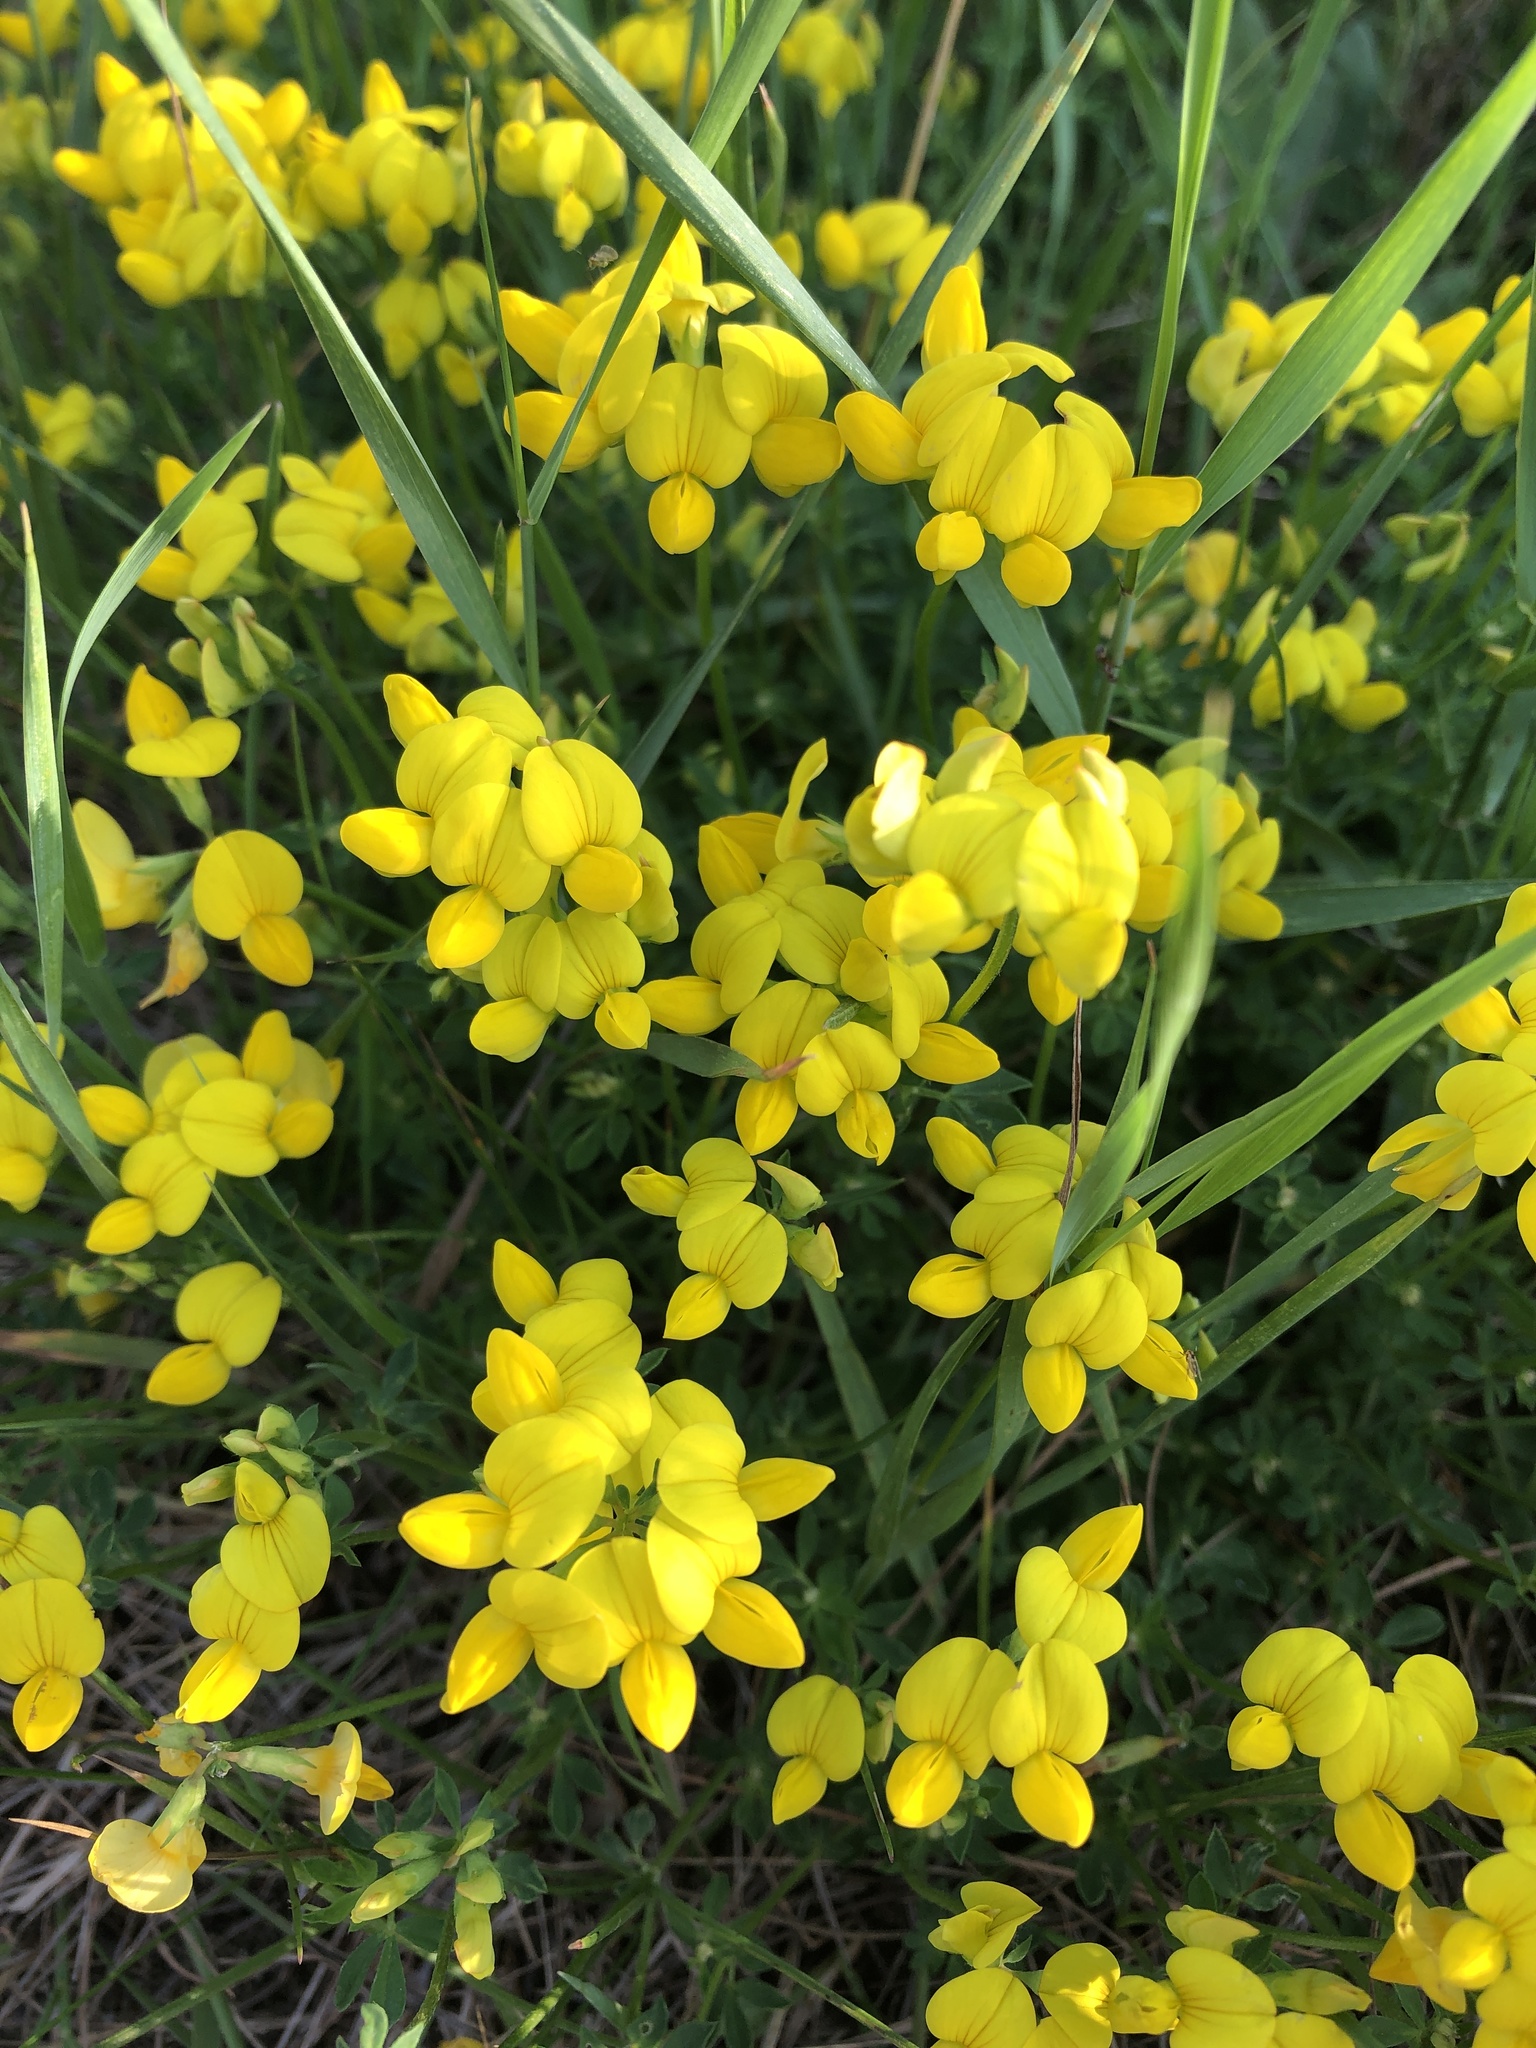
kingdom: Plantae
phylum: Tracheophyta
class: Magnoliopsida
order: Fabales
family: Fabaceae
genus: Lotus
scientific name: Lotus corniculatus
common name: Common bird's-foot-trefoil
